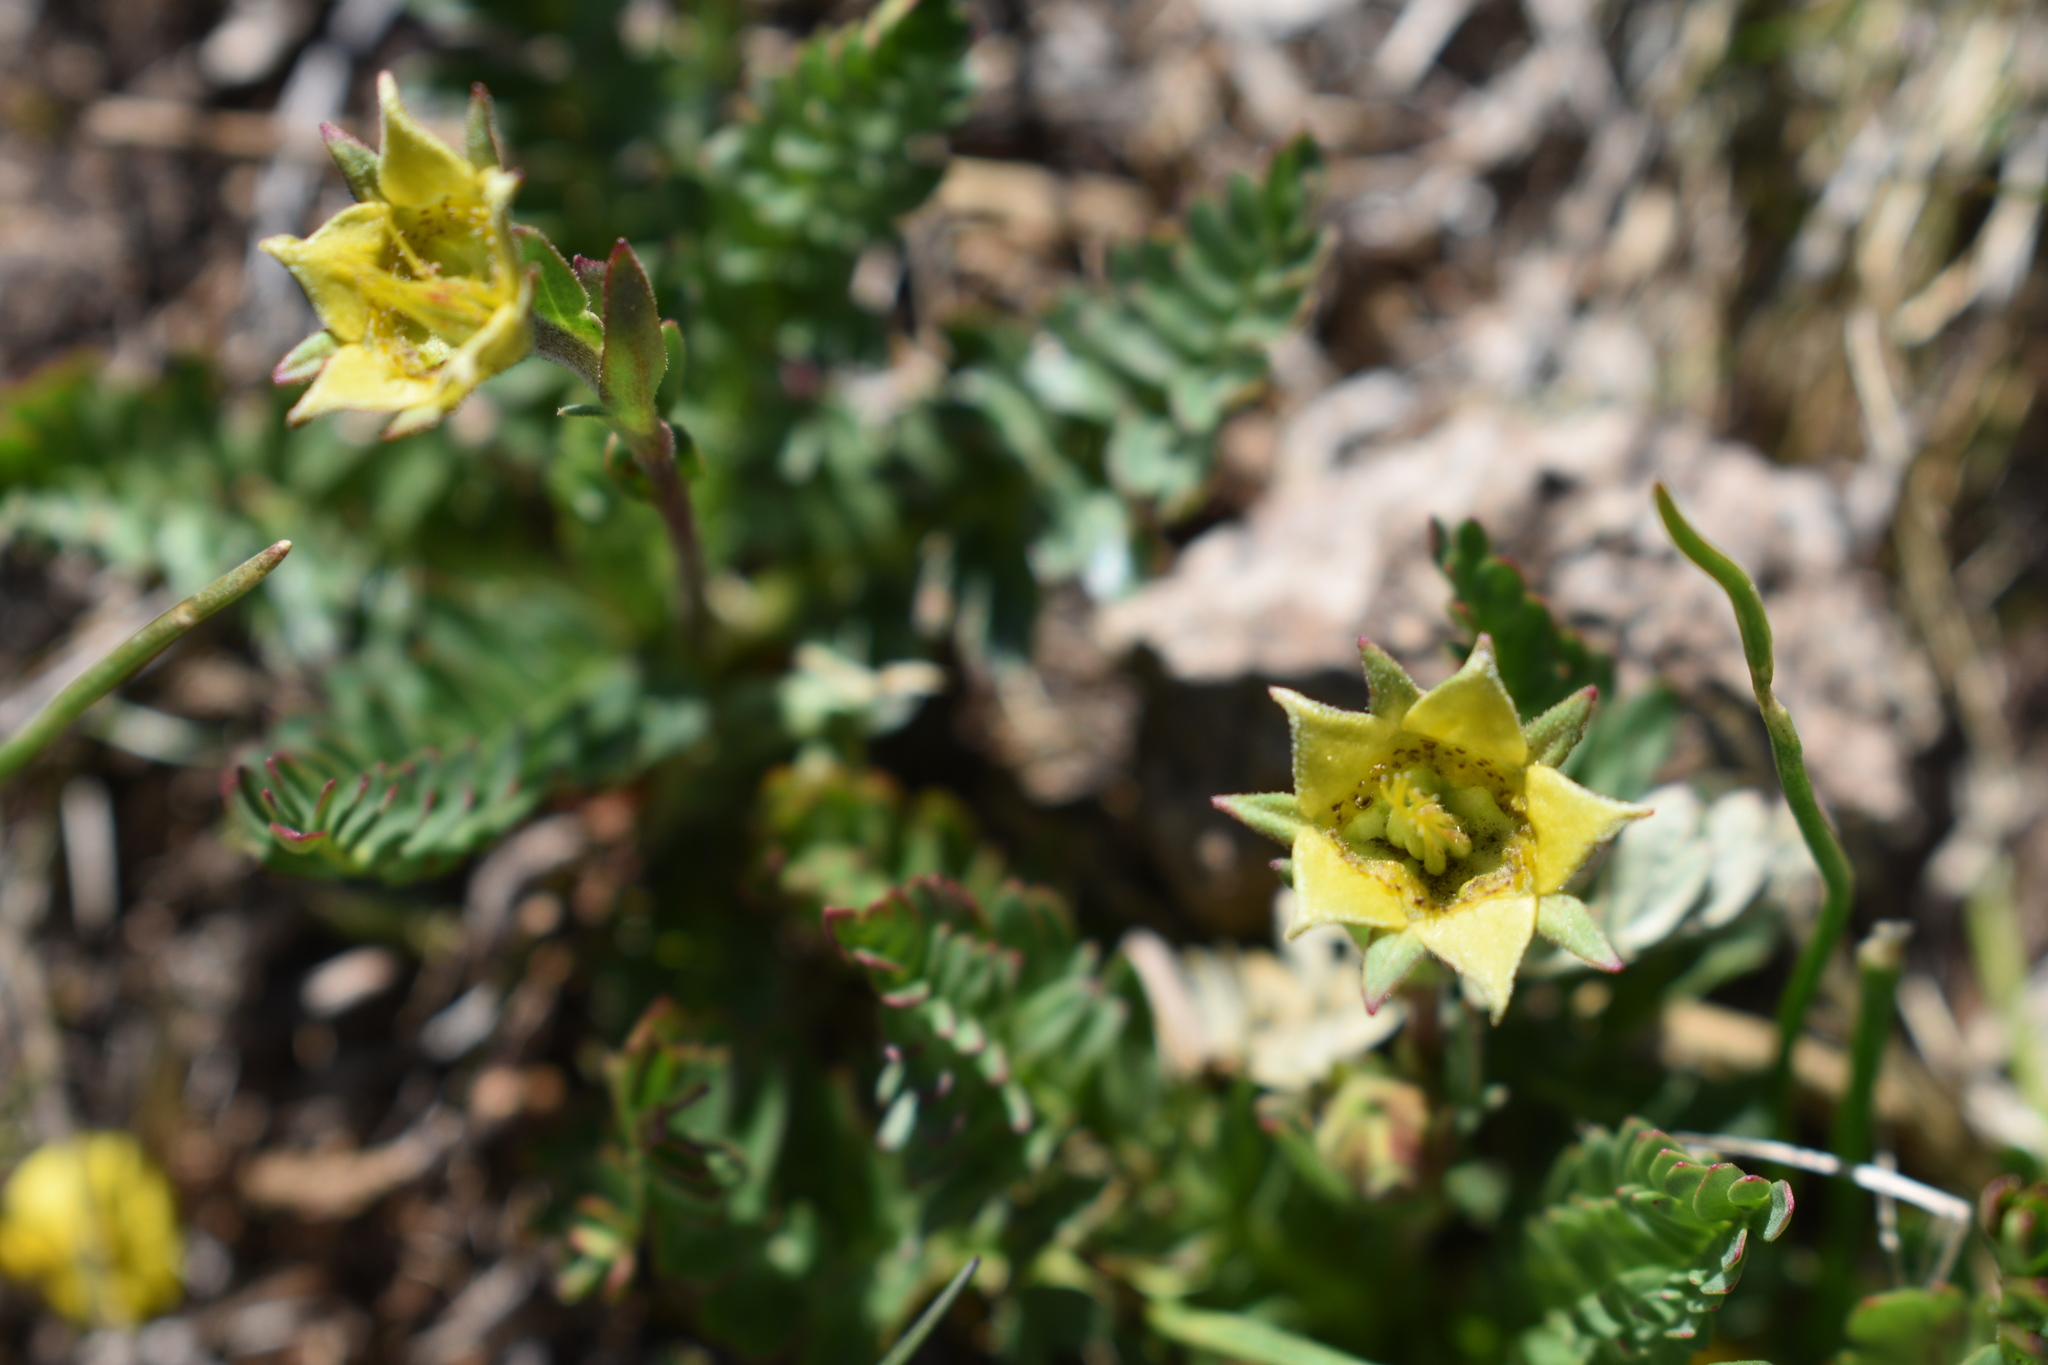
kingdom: Plantae
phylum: Tracheophyta
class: Magnoliopsida
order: Rosales
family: Rosaceae
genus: Geum
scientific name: Geum rossii
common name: Alpine avens
